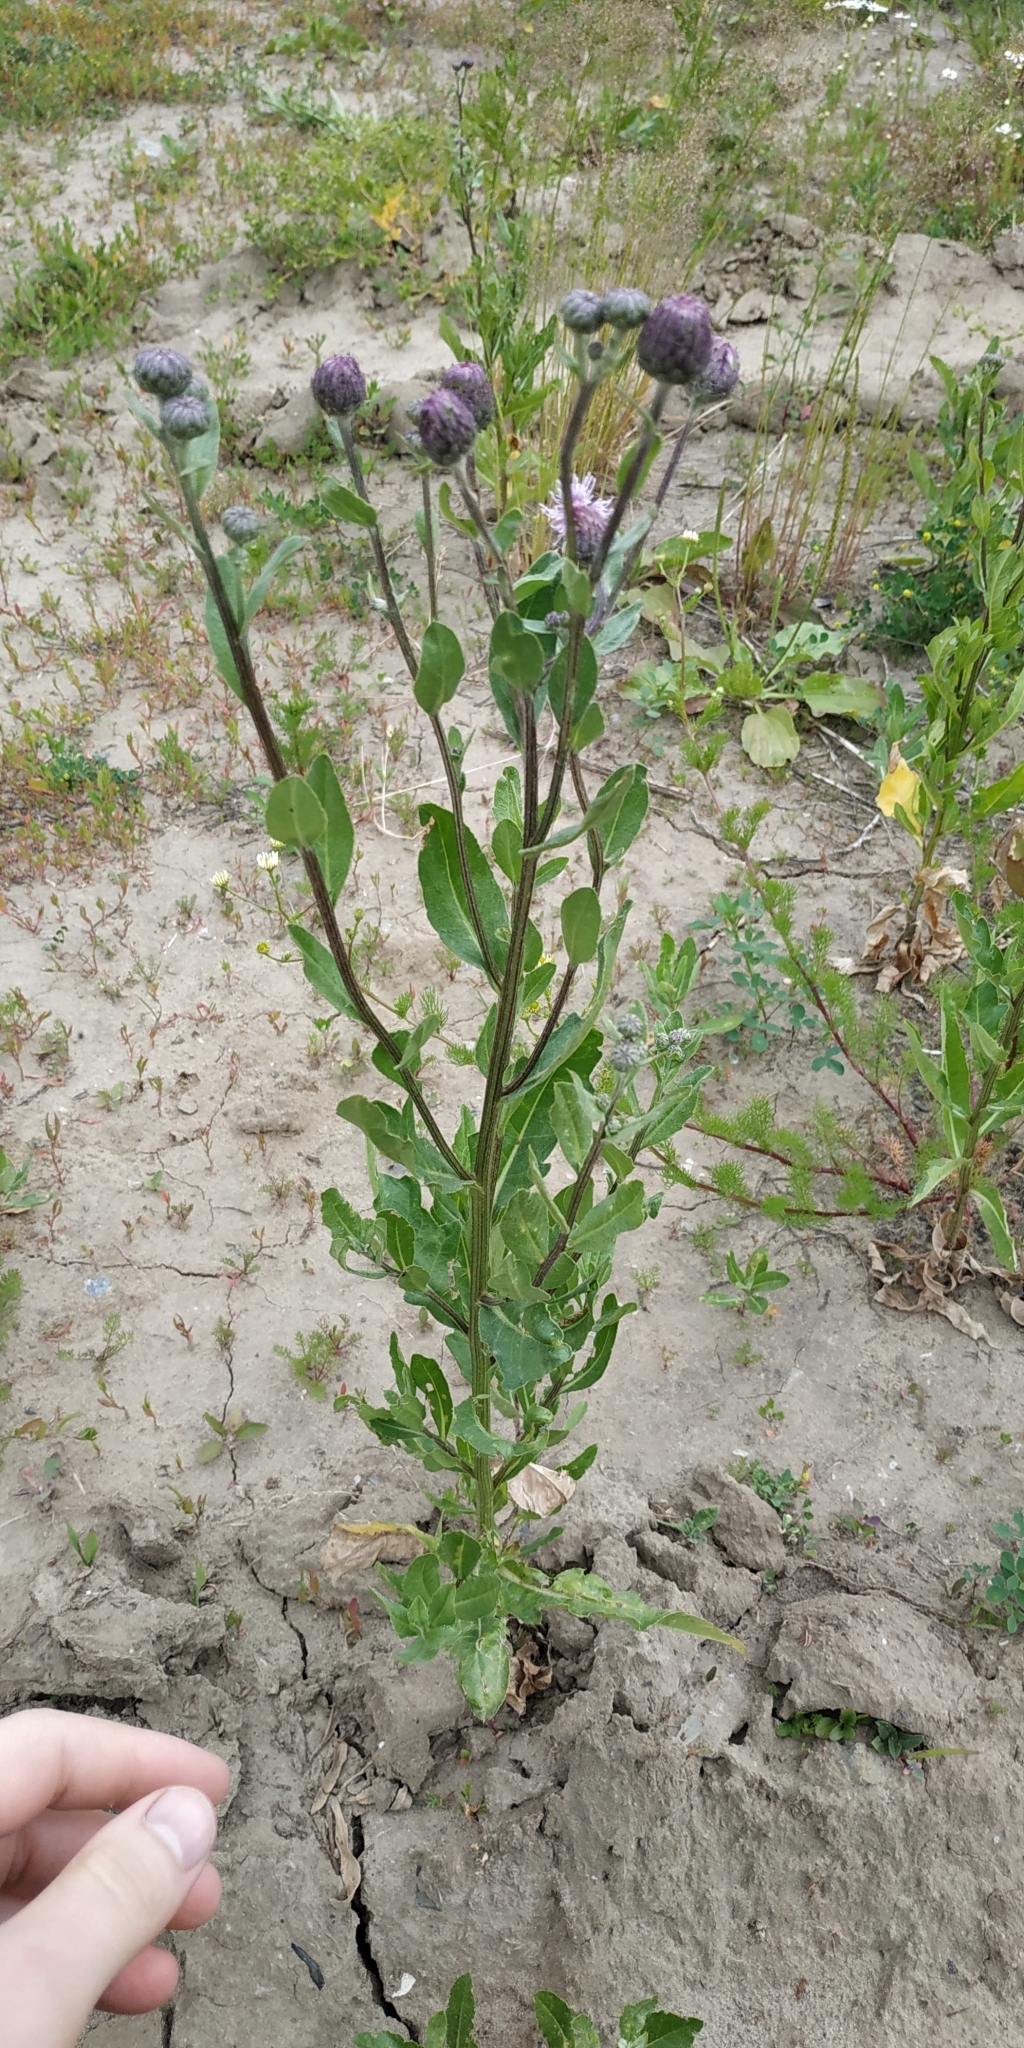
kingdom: Plantae
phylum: Tracheophyta
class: Magnoliopsida
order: Asterales
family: Asteraceae
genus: Cirsium
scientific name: Cirsium arvense
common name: Creeping thistle
